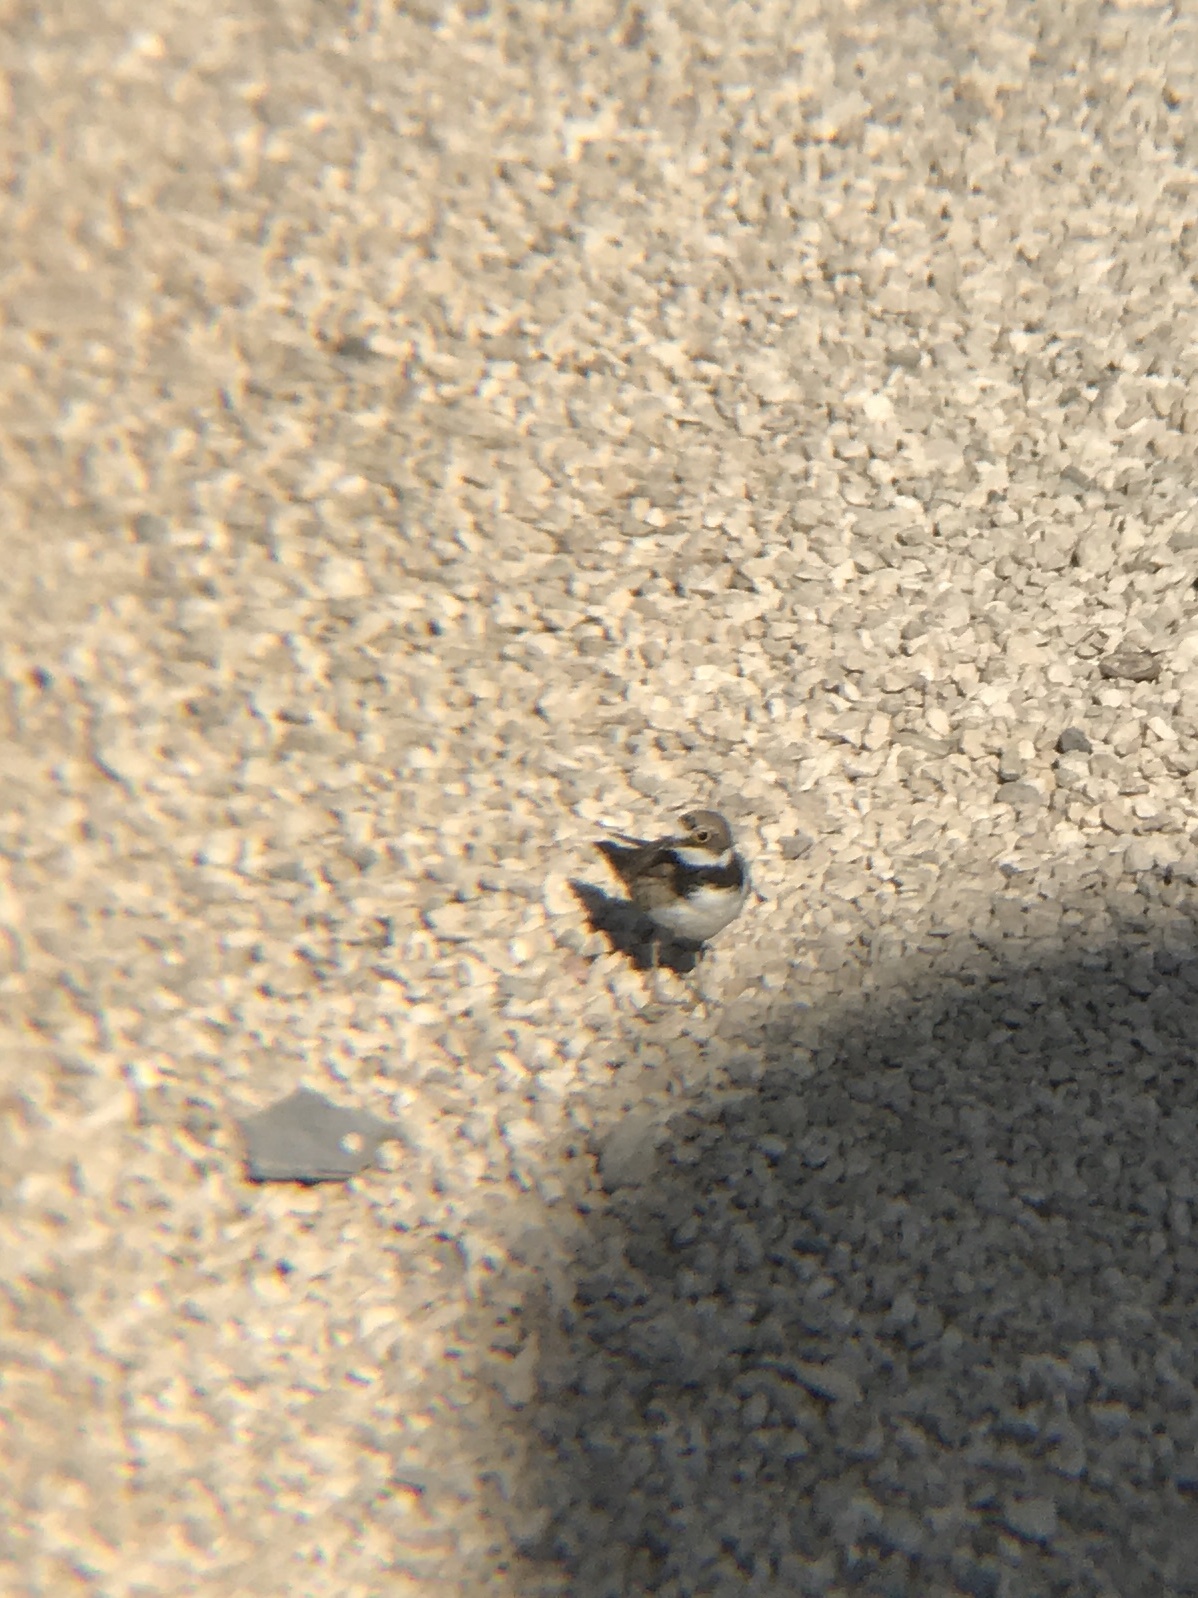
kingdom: Animalia
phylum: Chordata
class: Aves
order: Charadriiformes
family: Charadriidae
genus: Charadrius
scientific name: Charadrius dubius
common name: Little ringed plover
